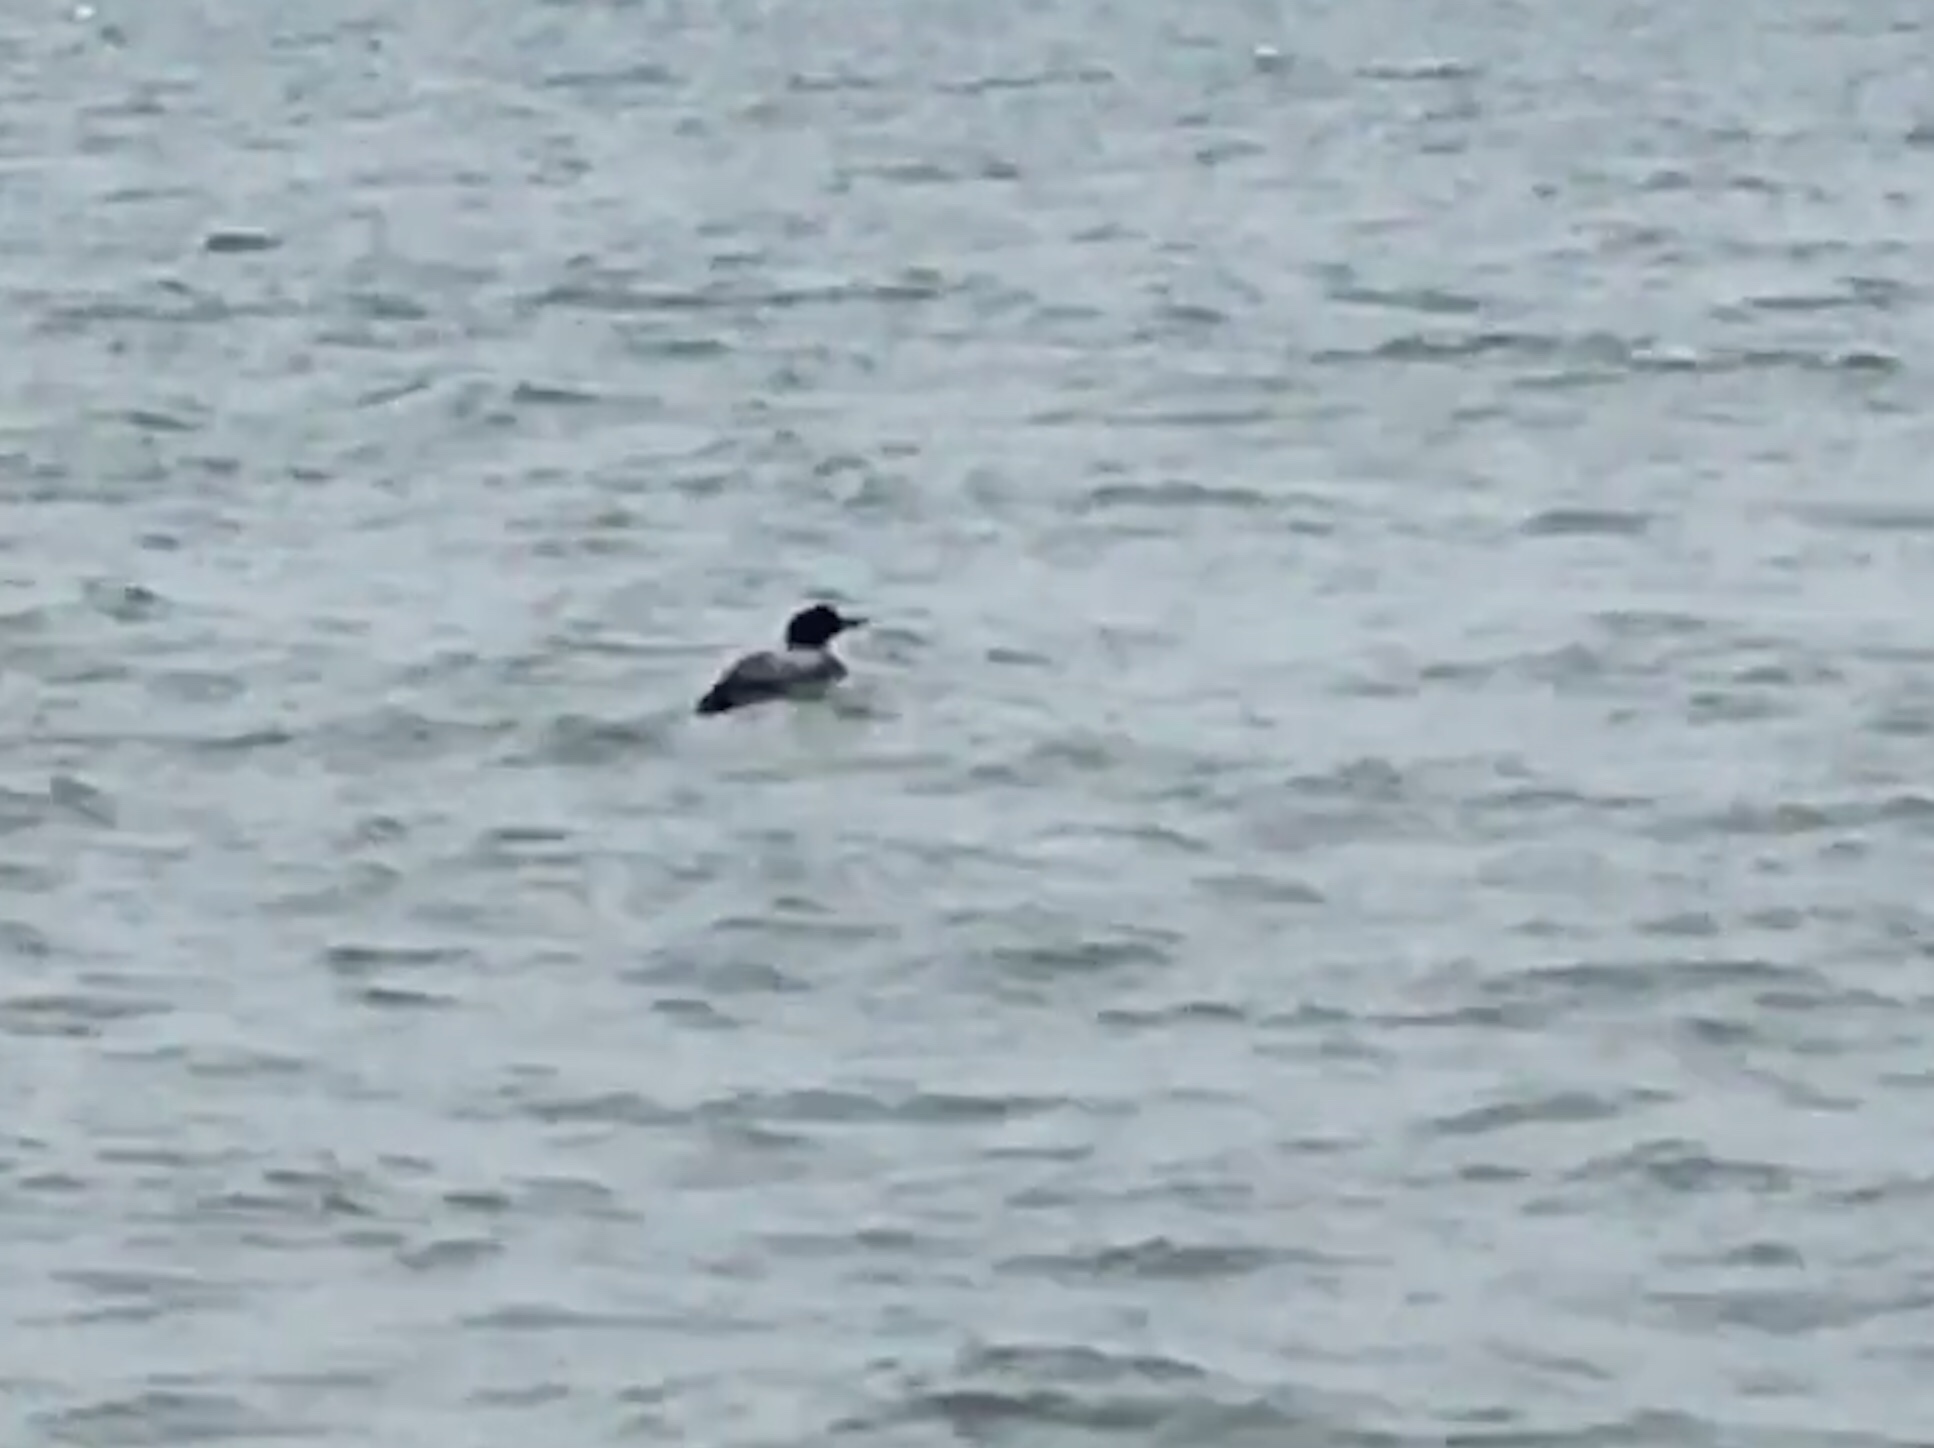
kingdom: Animalia
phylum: Chordata
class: Aves
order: Gaviiformes
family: Gaviidae
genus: Gavia
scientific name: Gavia immer
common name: Common loon
